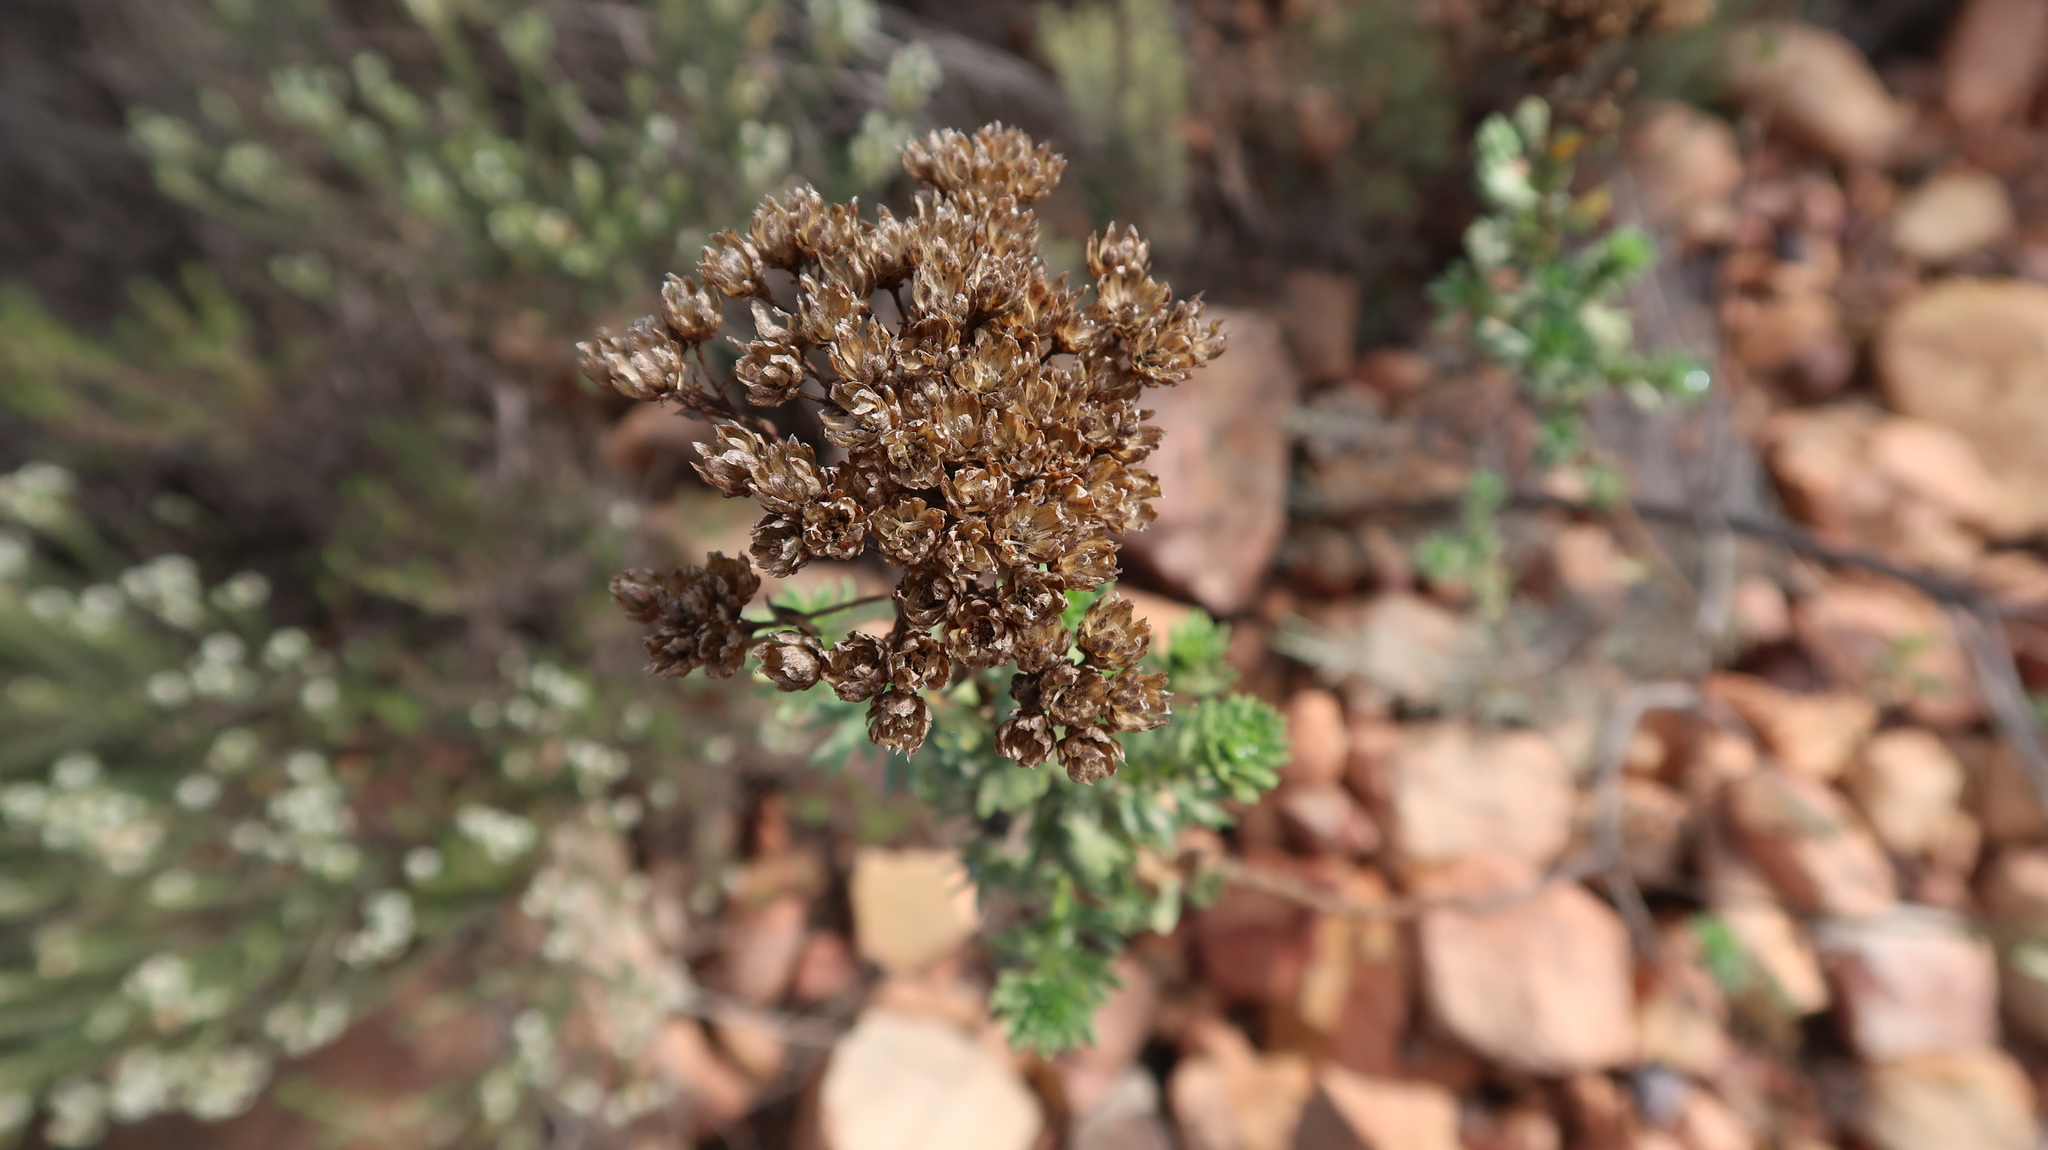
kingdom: Plantae
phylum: Tracheophyta
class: Magnoliopsida
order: Asterales
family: Asteraceae
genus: Athanasia
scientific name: Athanasia trifurcata
